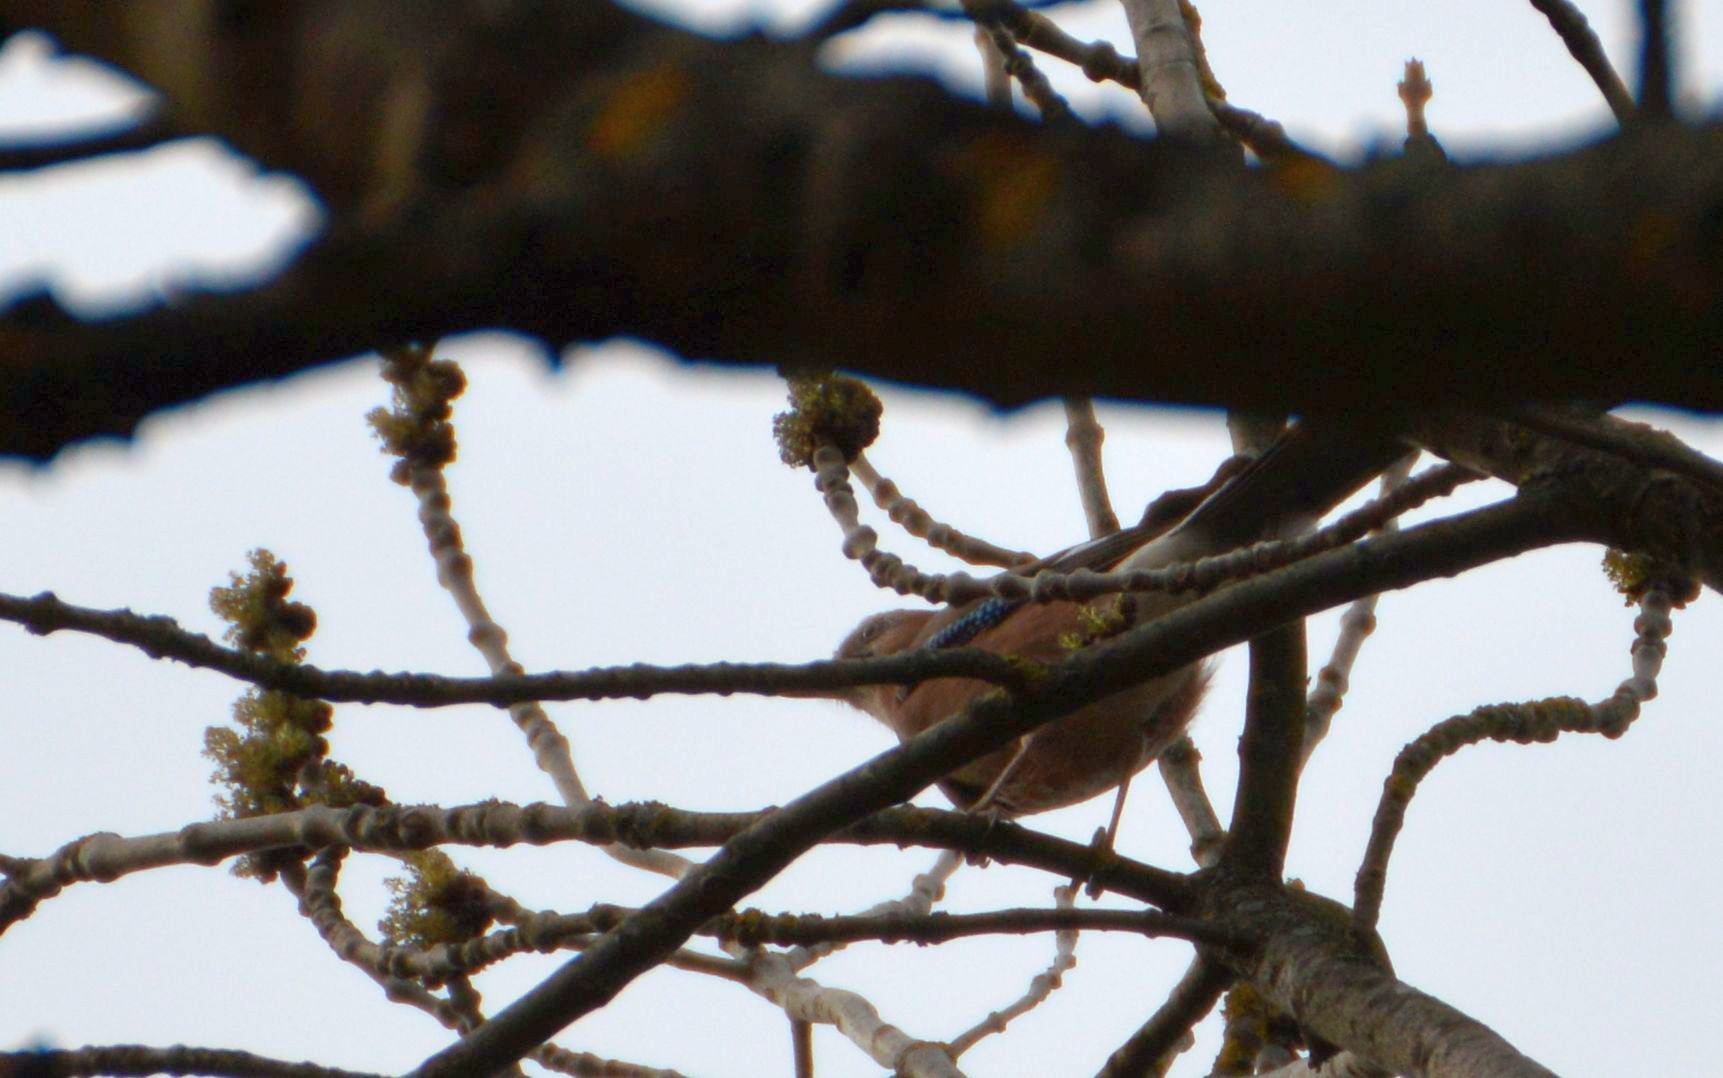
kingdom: Animalia
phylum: Chordata
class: Aves
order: Passeriformes
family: Corvidae
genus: Garrulus
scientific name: Garrulus glandarius
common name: Eurasian jay
